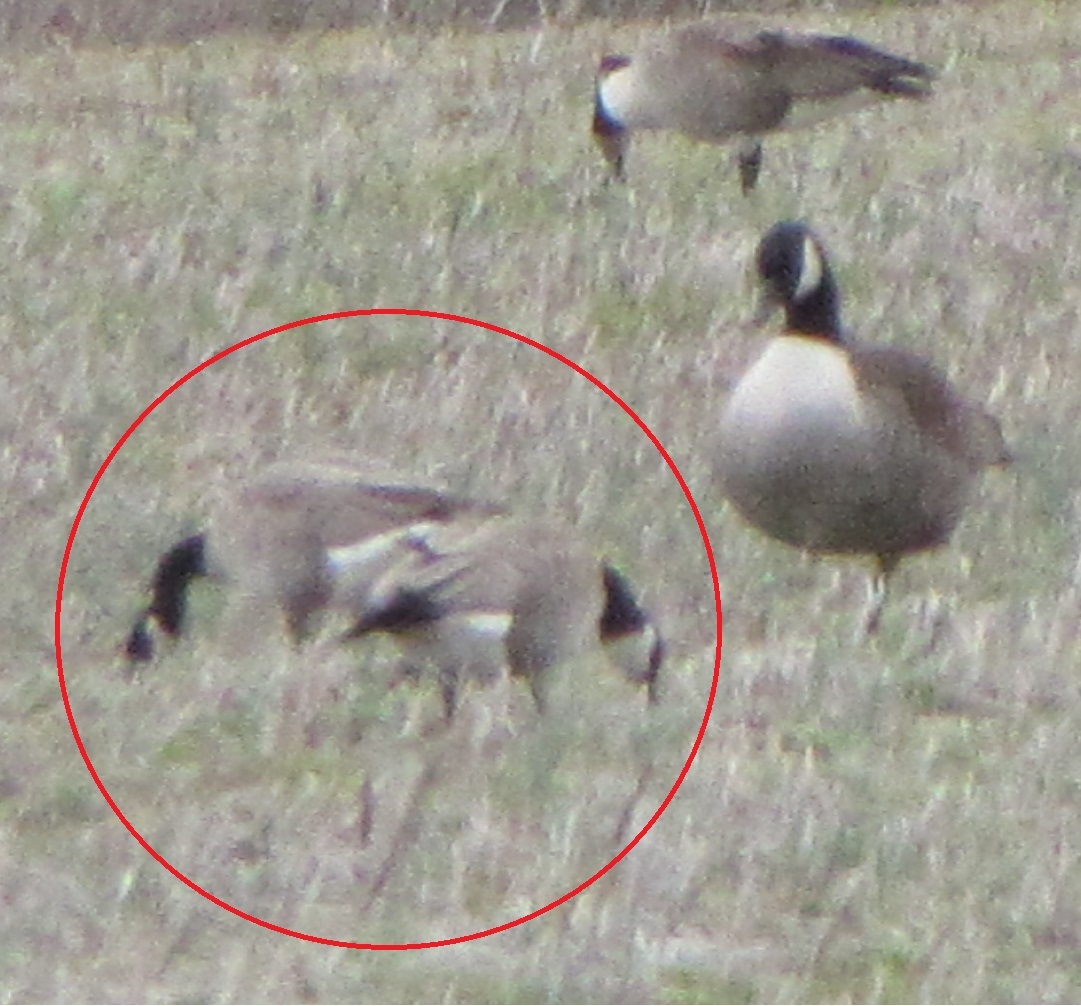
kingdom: Animalia
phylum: Chordata
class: Aves
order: Anseriformes
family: Anatidae
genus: Branta
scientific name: Branta hutchinsii
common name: Cackling goose
